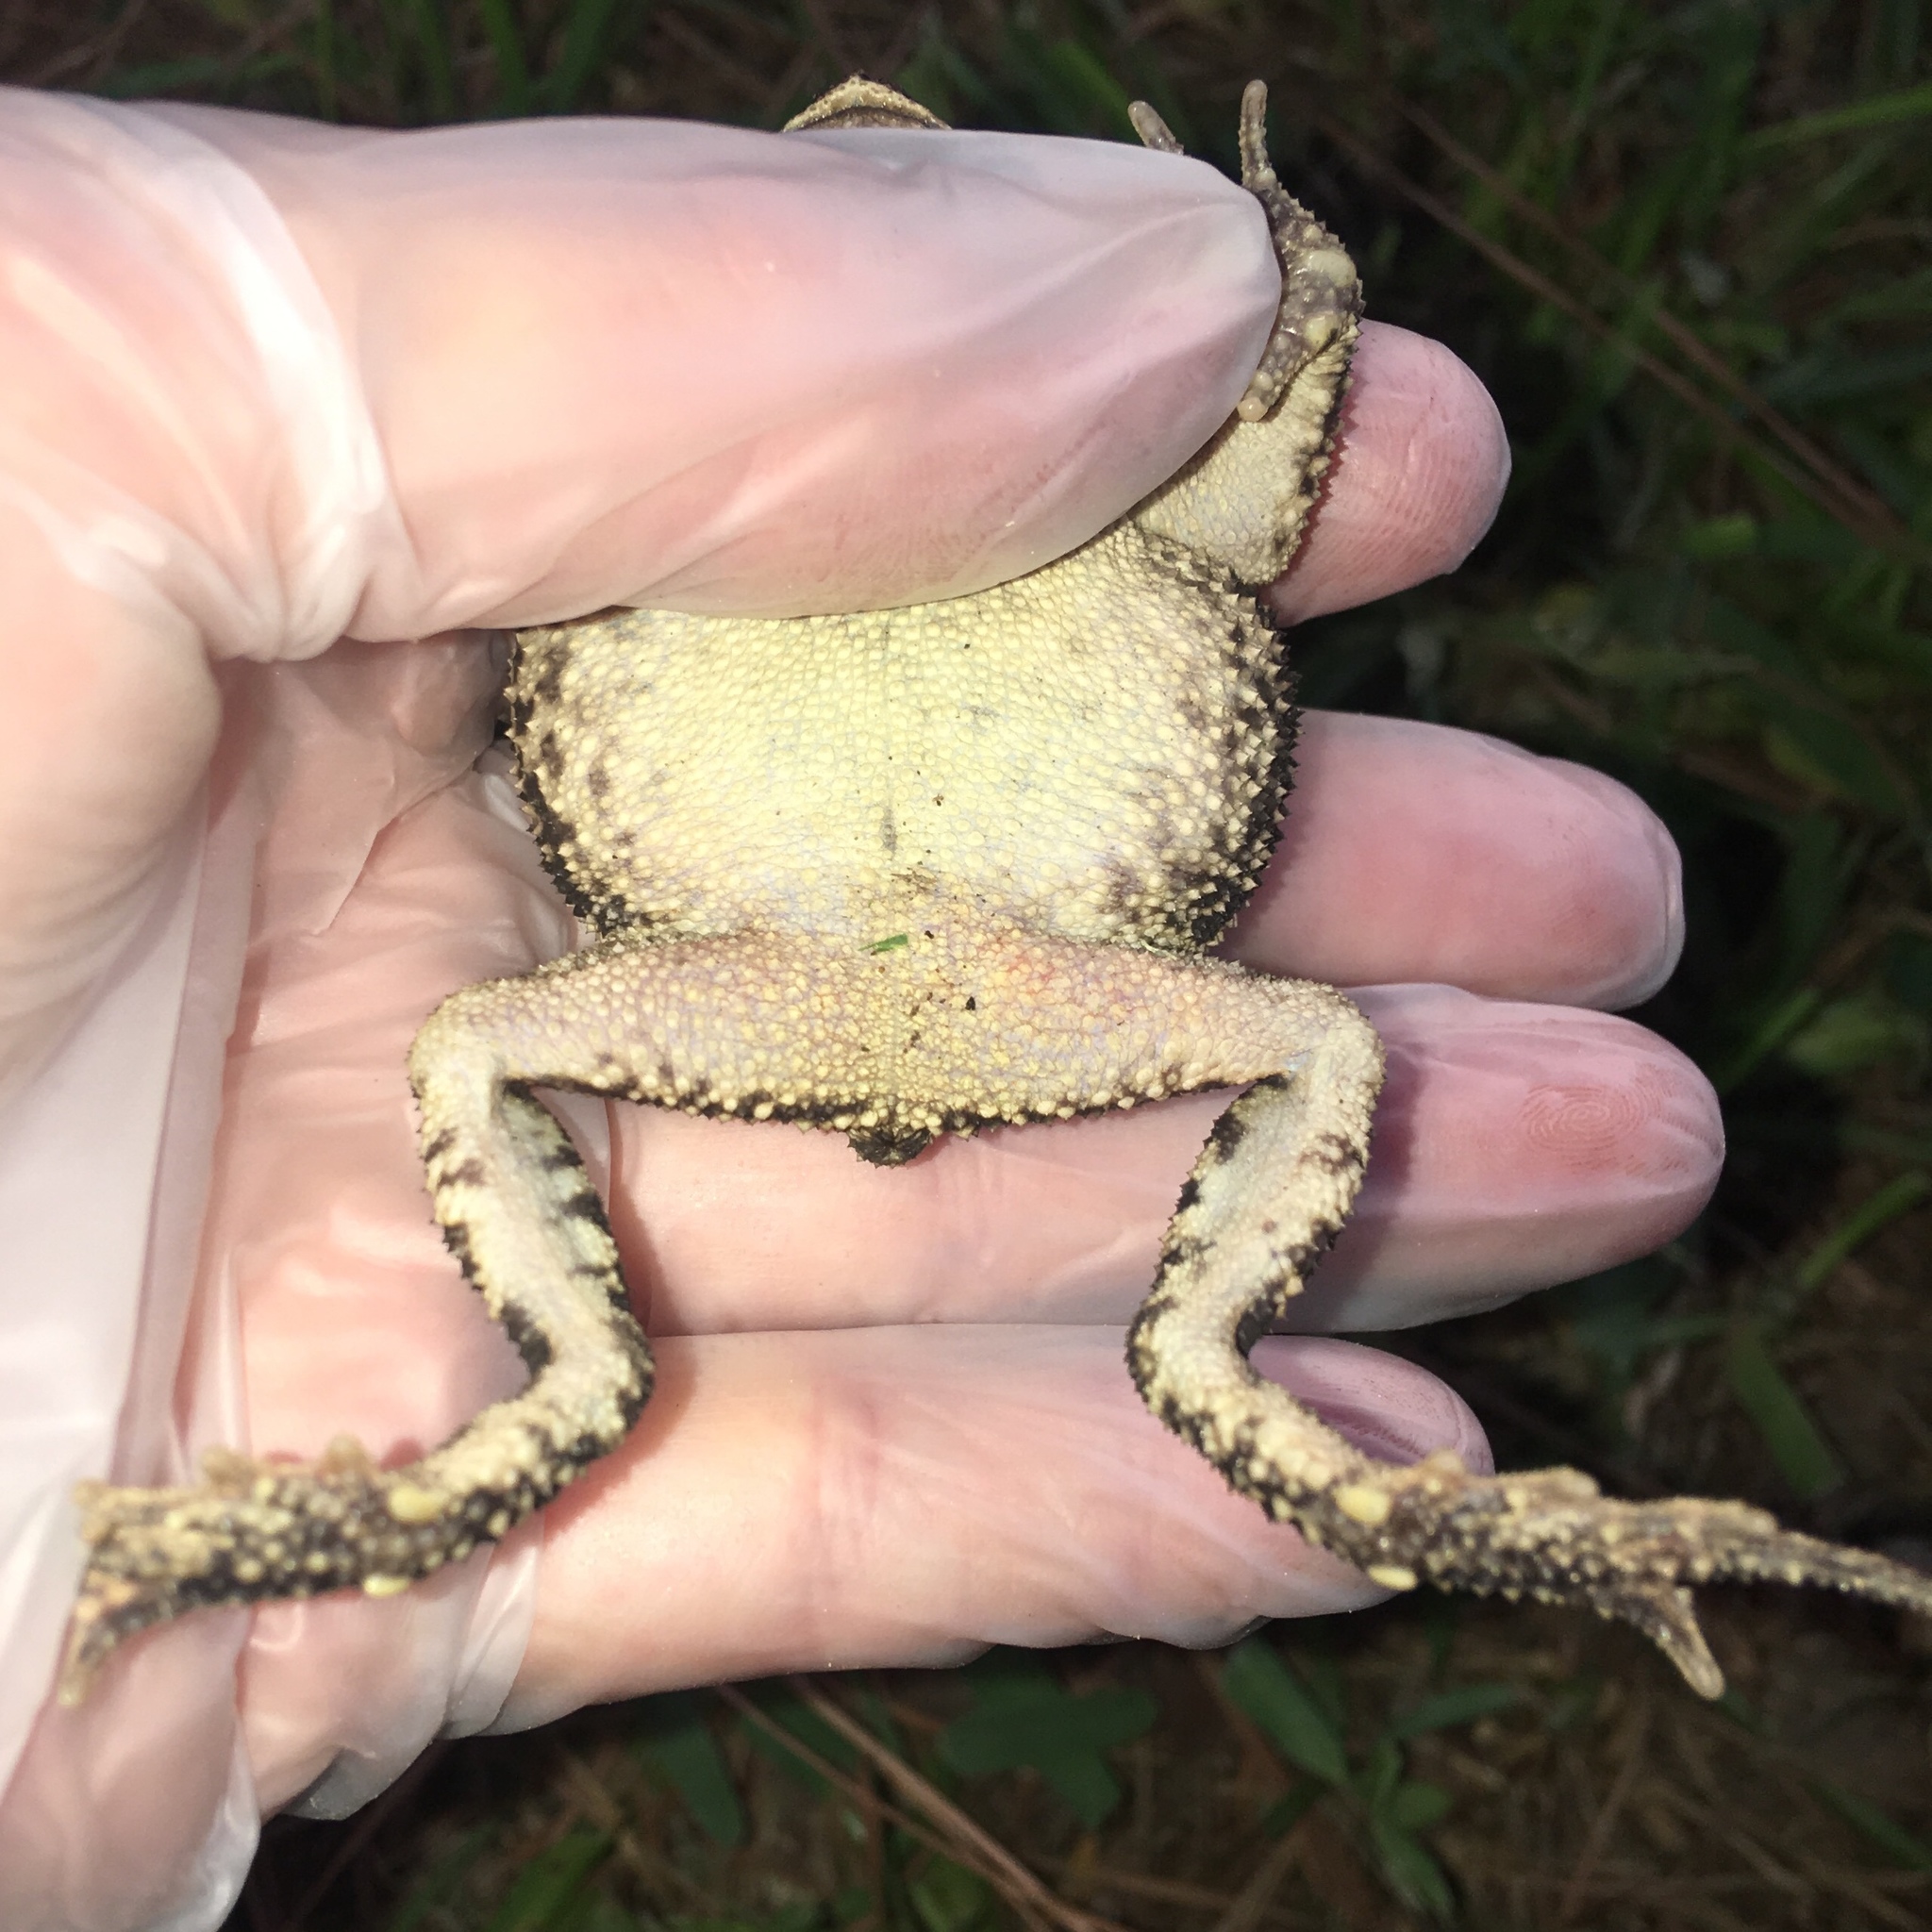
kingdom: Animalia
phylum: Chordata
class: Amphibia
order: Anura
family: Bufonidae
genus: Incilius
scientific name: Incilius nebulifer
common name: Gulf coast toad
